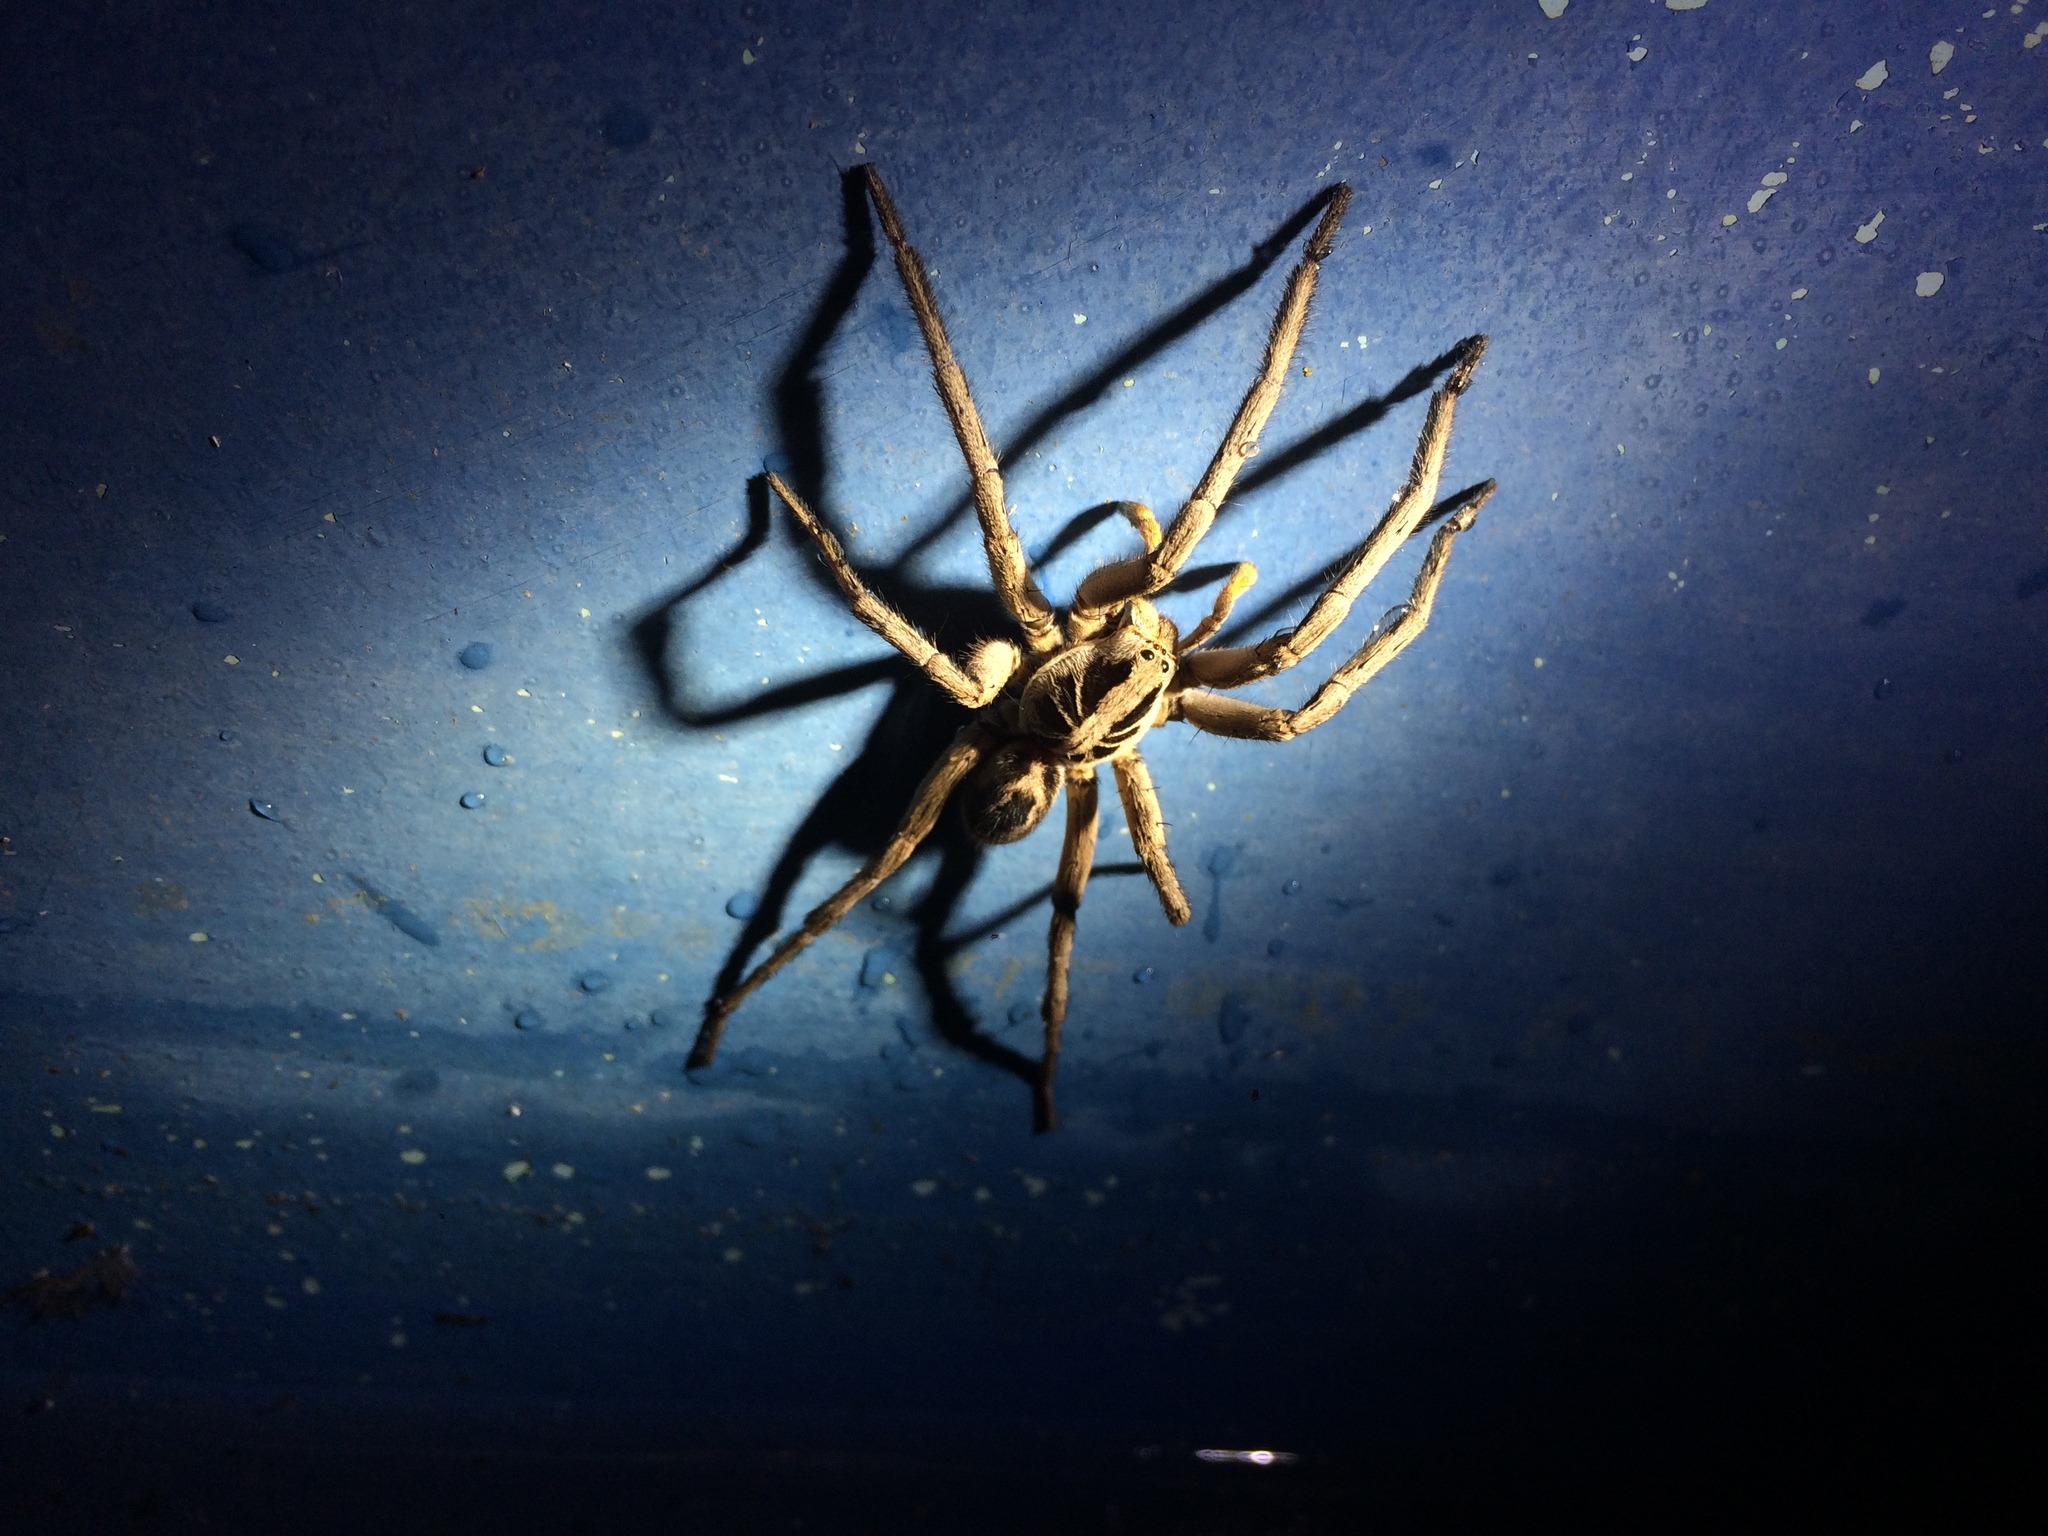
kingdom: Animalia
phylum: Arthropoda
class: Arachnida
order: Araneae
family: Lycosidae
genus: Lycosa
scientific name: Lycosa erythrognatha
